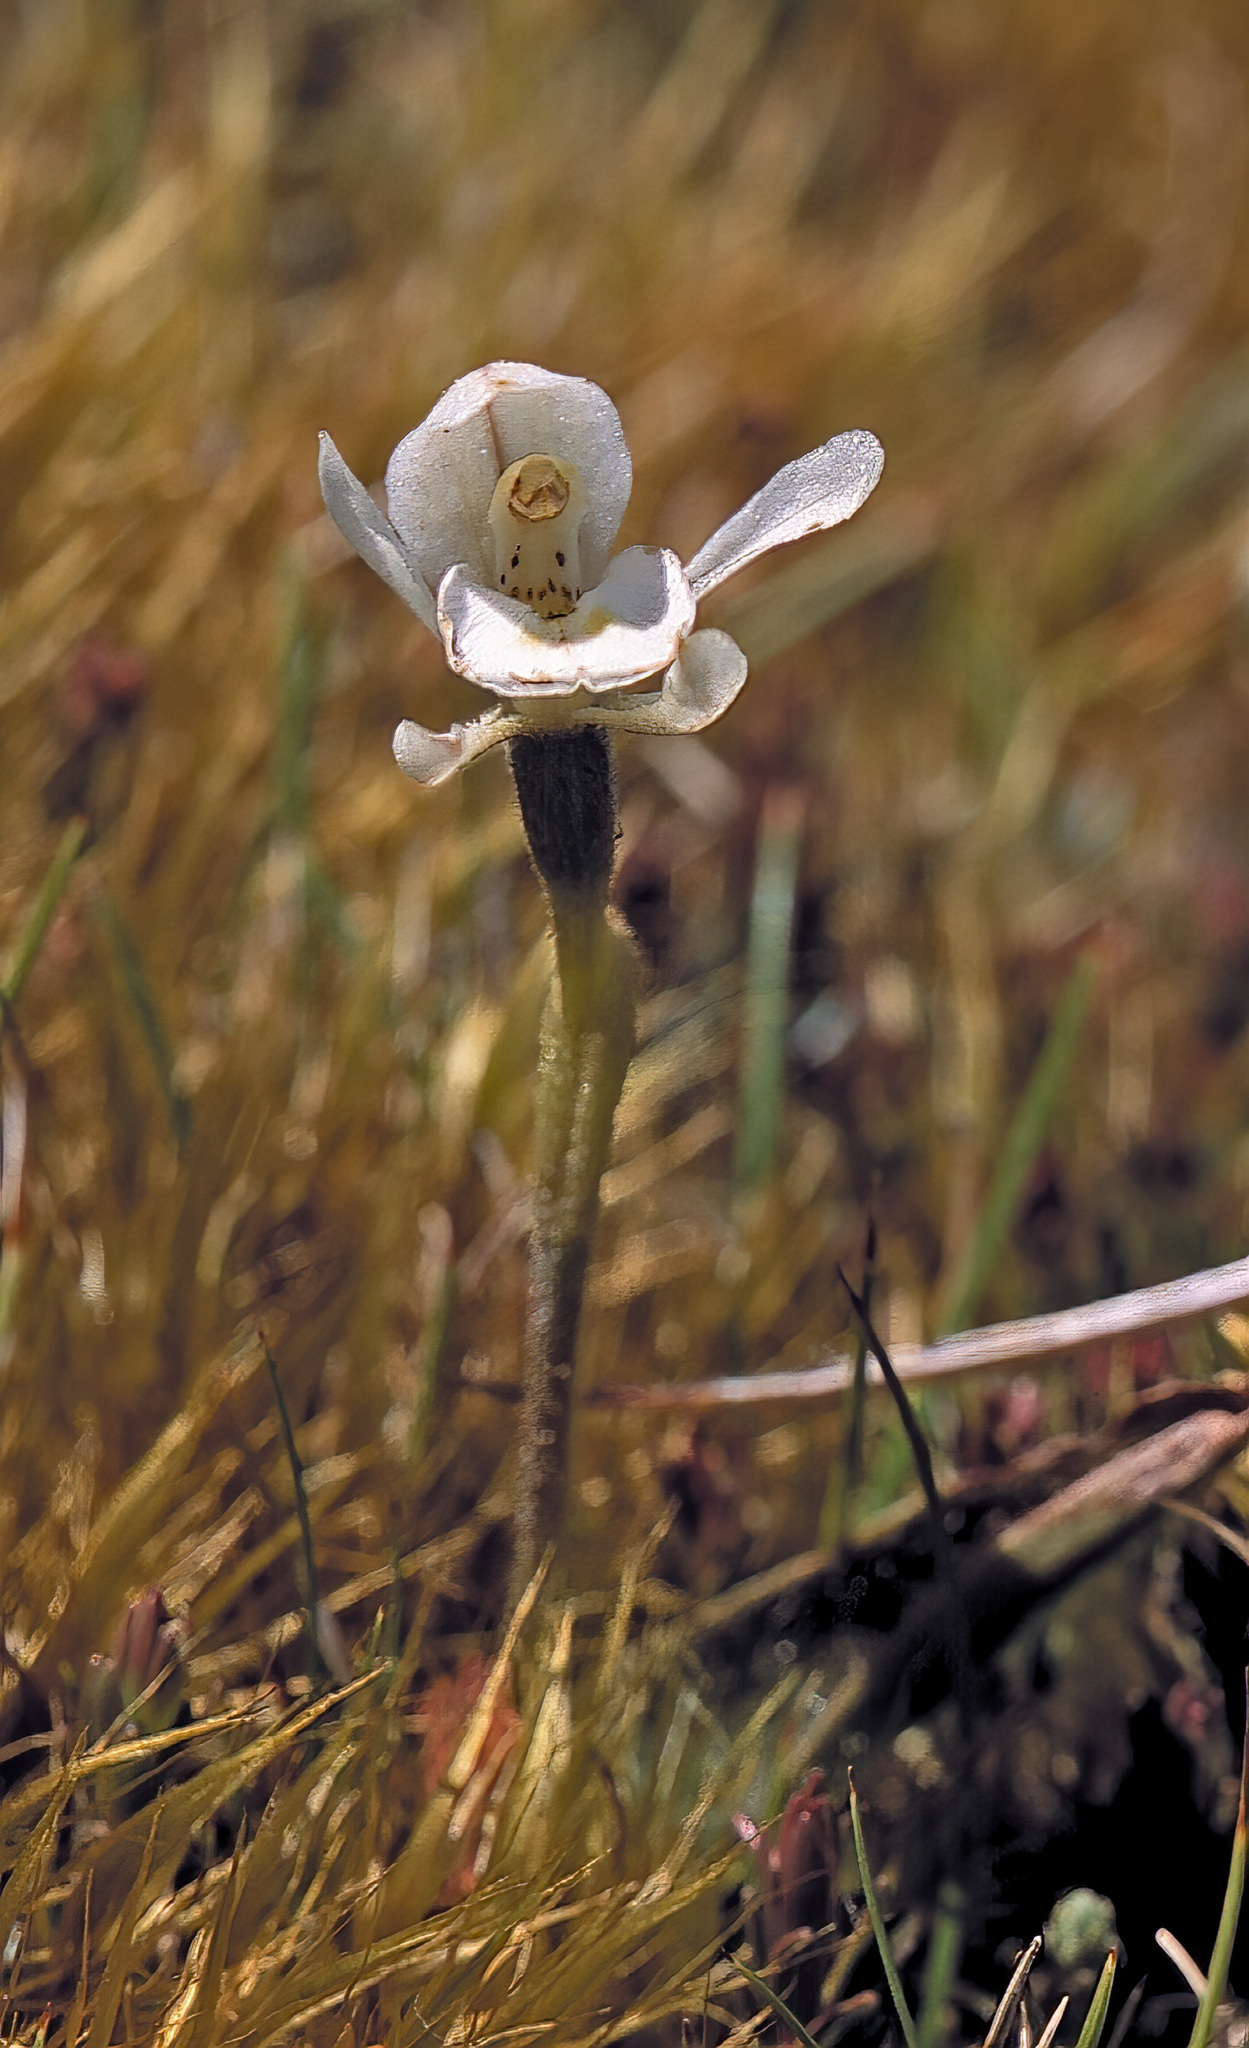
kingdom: Plantae
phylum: Tracheophyta
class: Liliopsida
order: Asparagales
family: Orchidaceae
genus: Aporostylis
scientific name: Aporostylis bifolia
